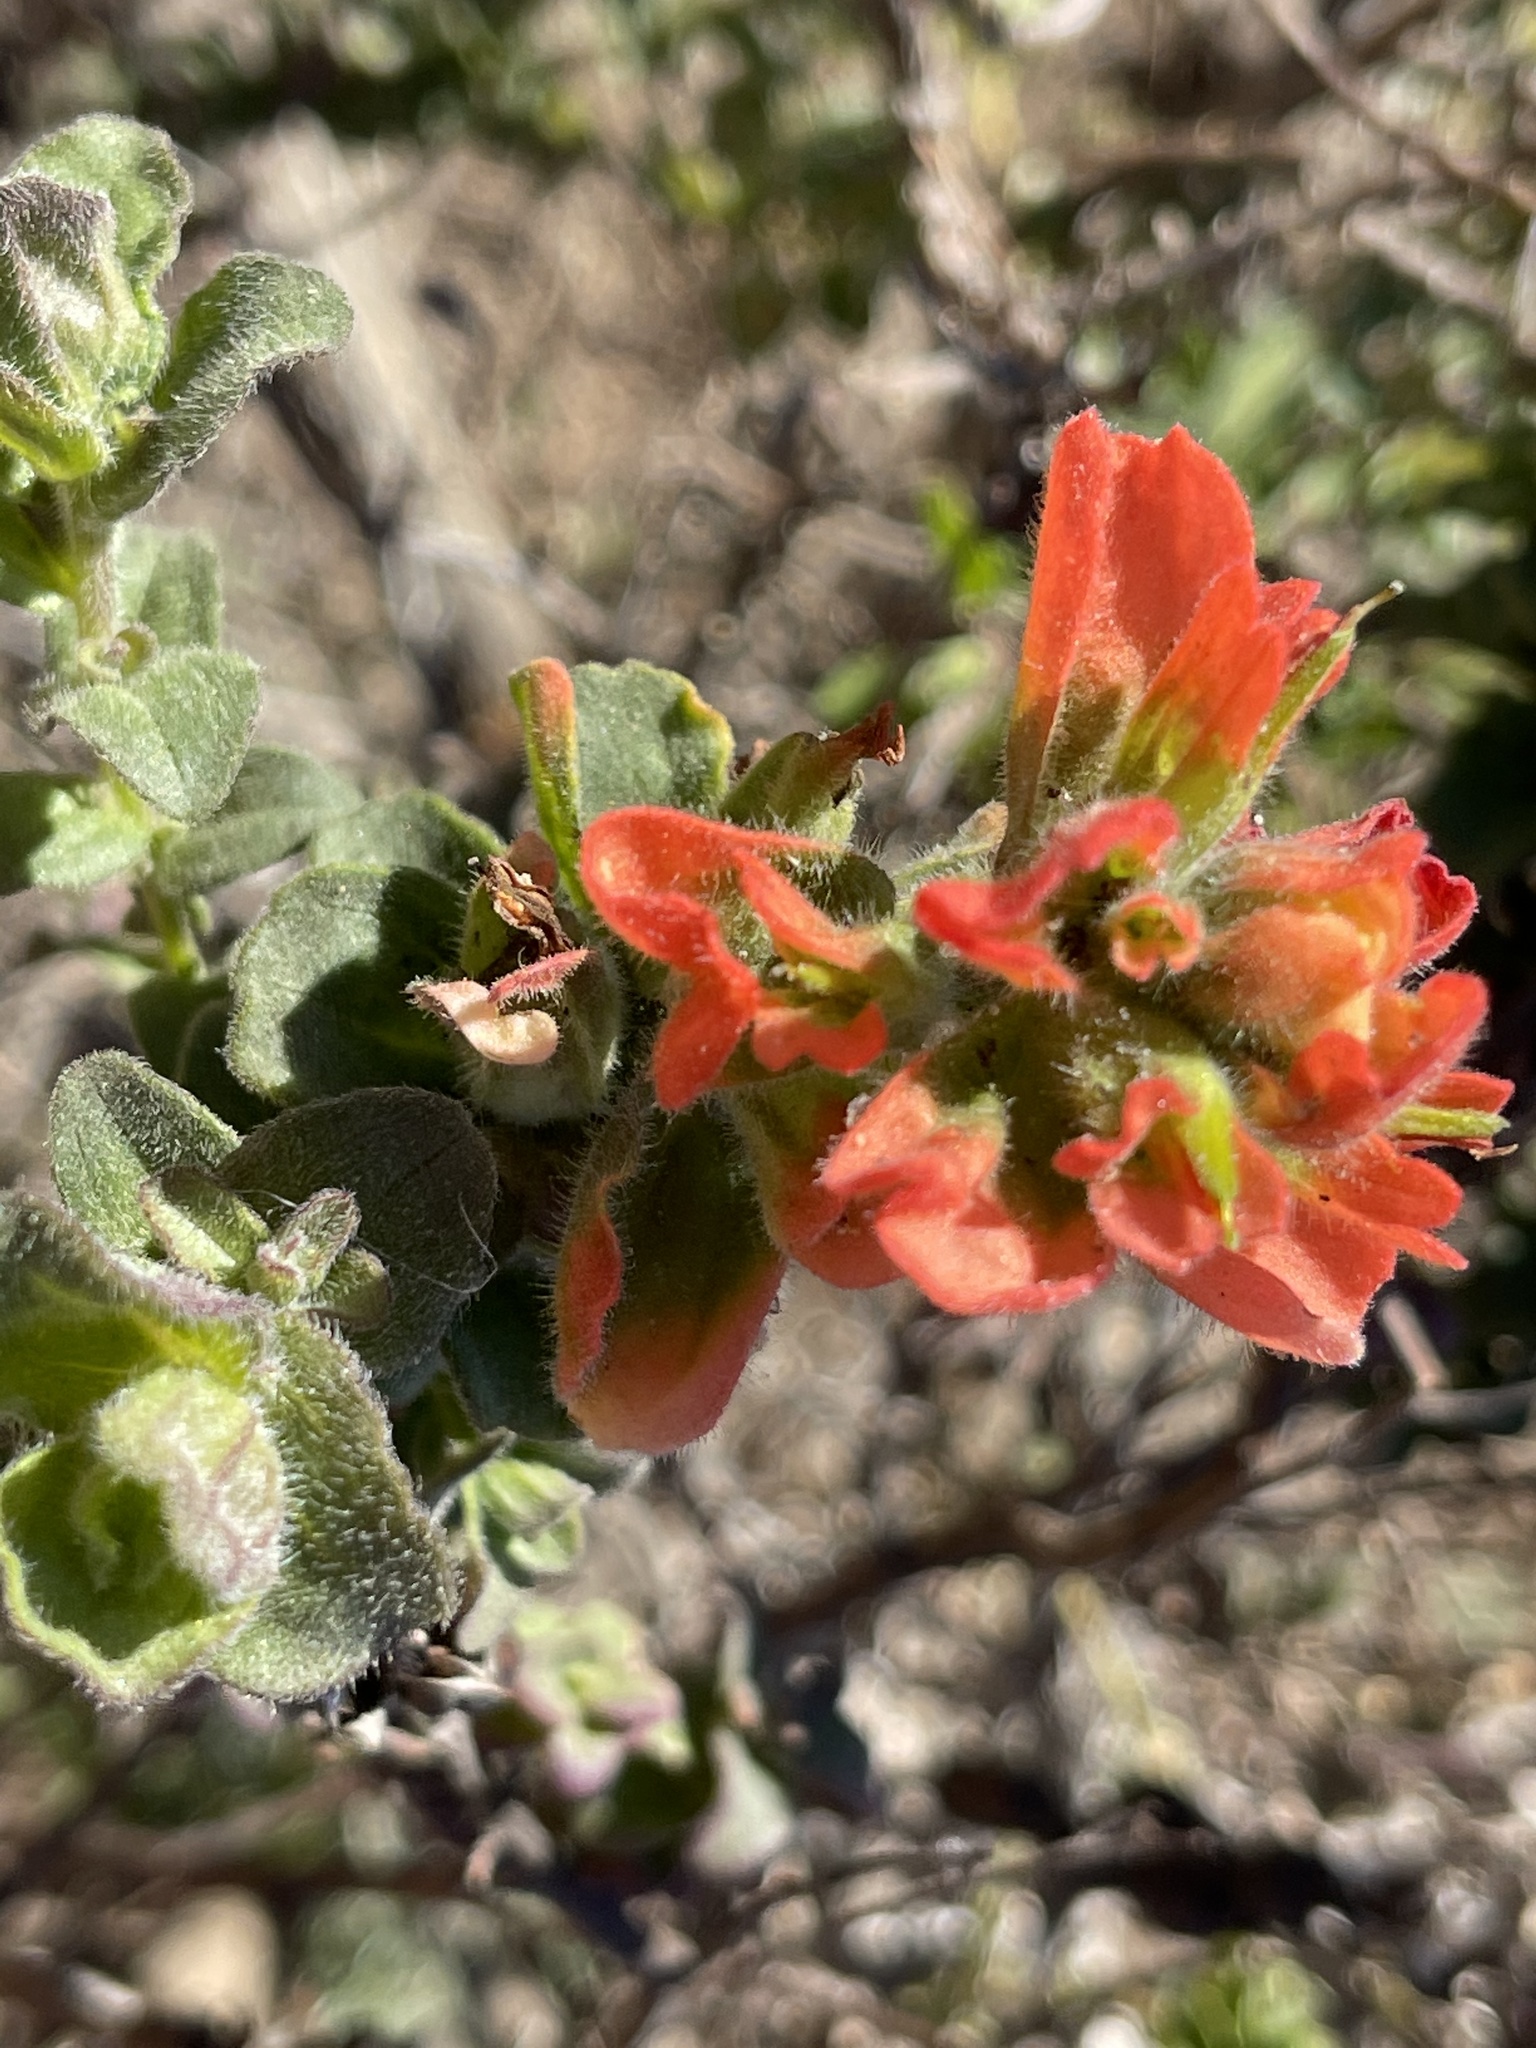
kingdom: Plantae
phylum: Tracheophyta
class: Magnoliopsida
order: Lamiales
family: Orobanchaceae
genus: Castilleja
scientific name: Castilleja latifolia
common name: Monterey indian paintbrush
